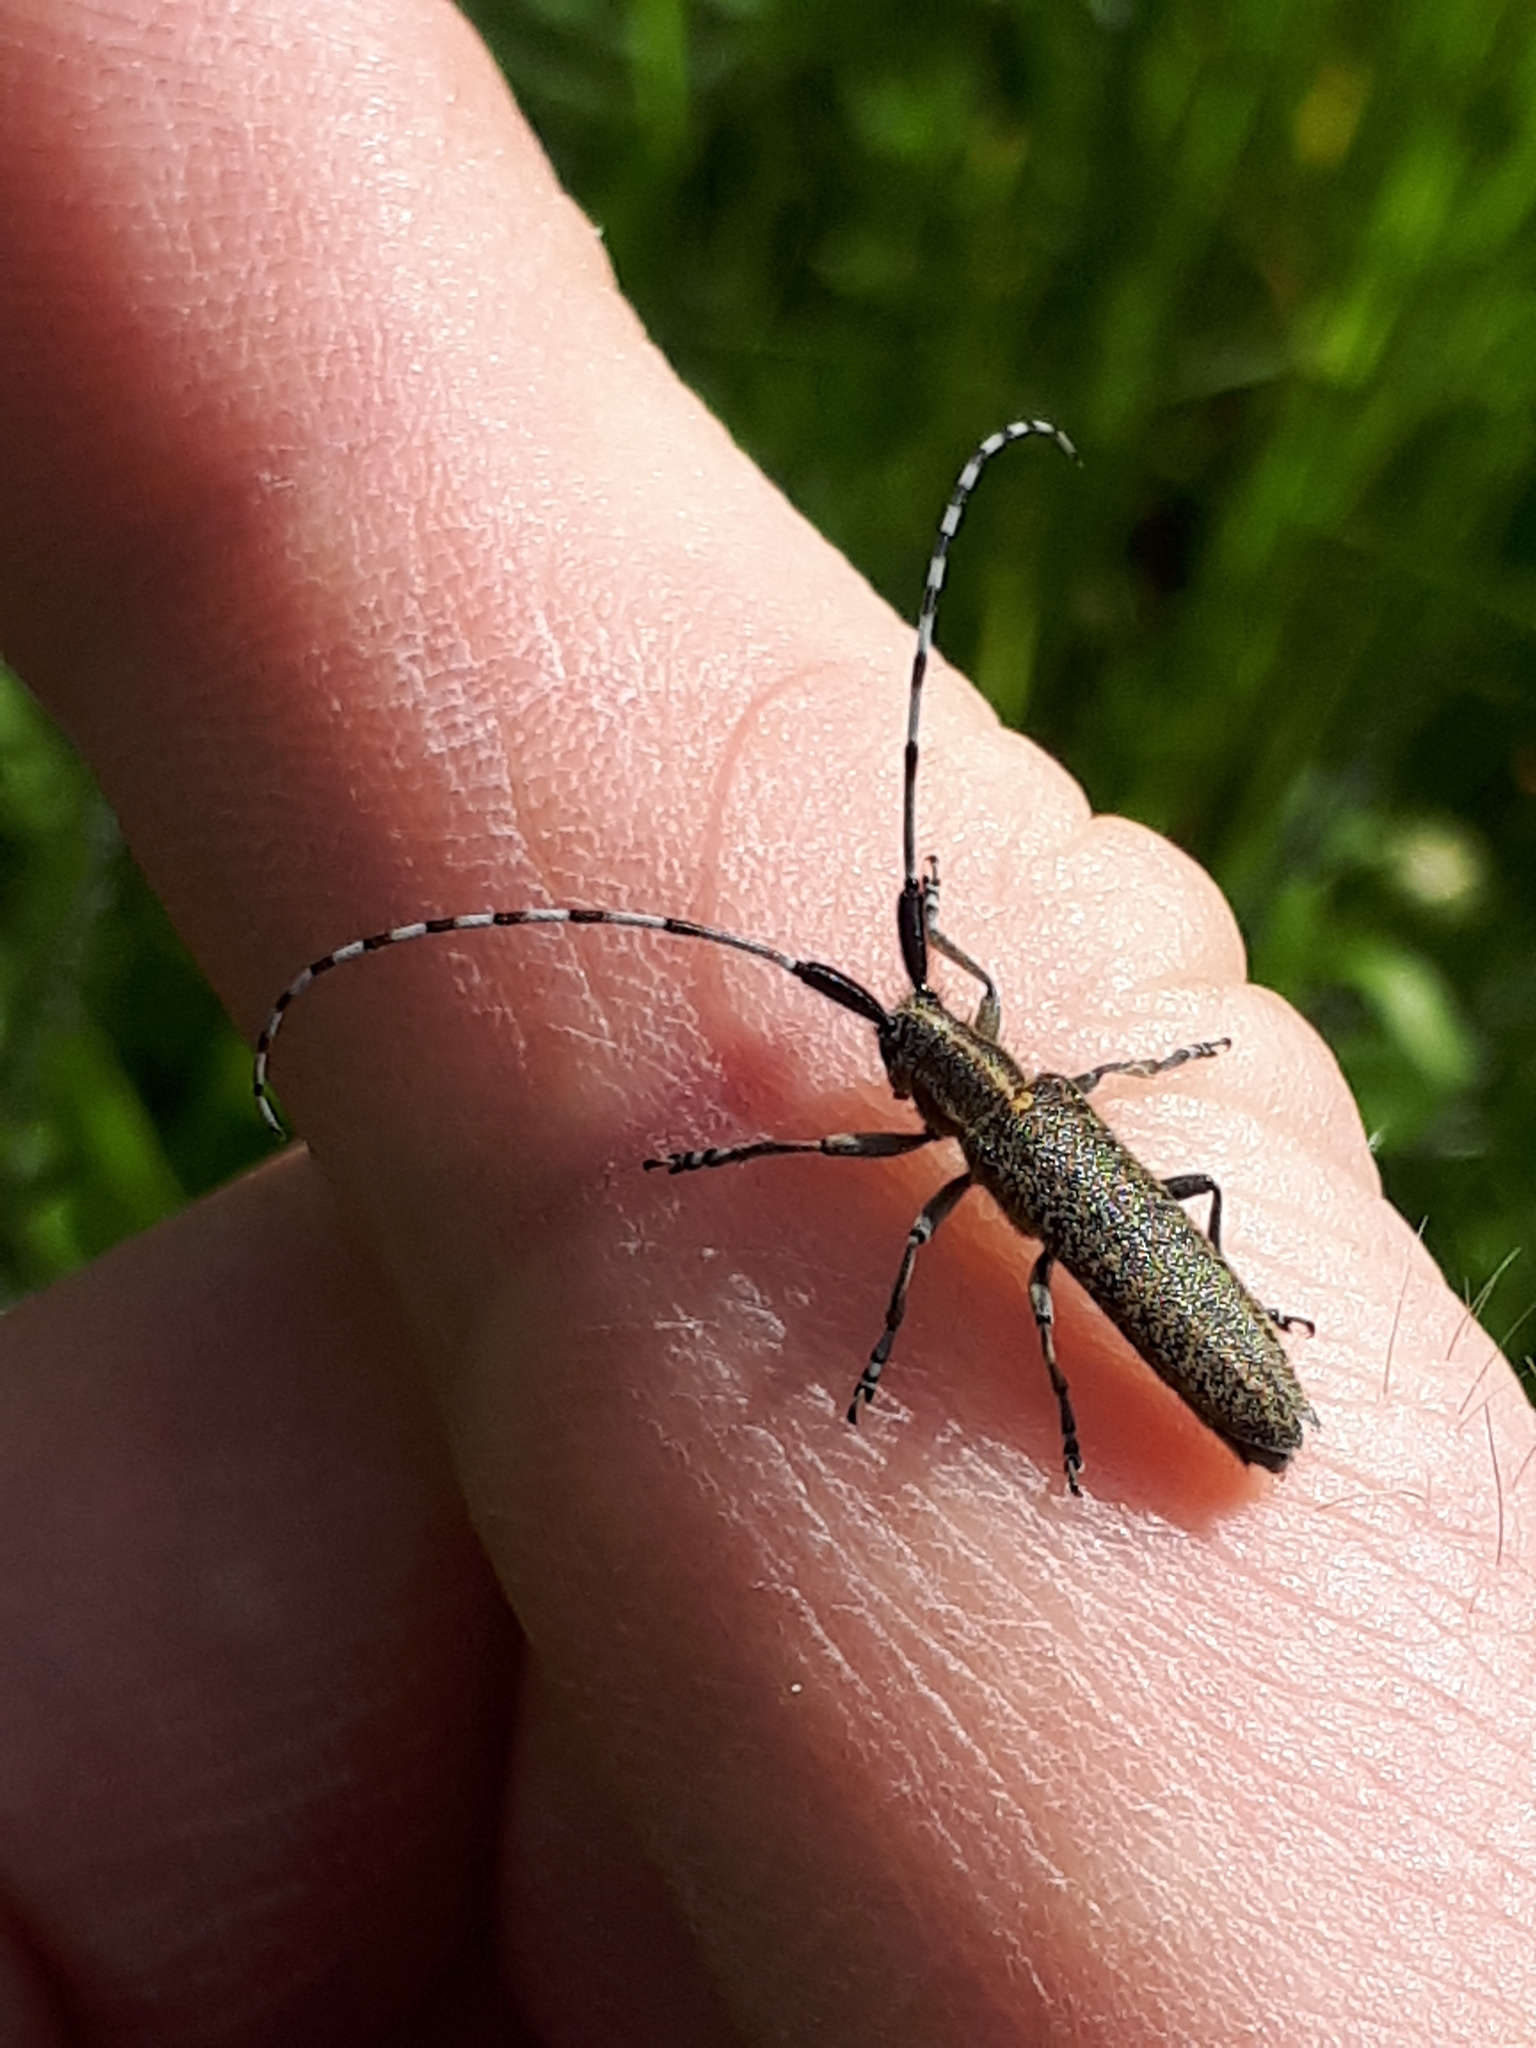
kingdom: Animalia
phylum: Arthropoda
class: Insecta
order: Coleoptera
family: Cerambycidae
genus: Agapanthia
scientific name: Agapanthia villosoviridescens
